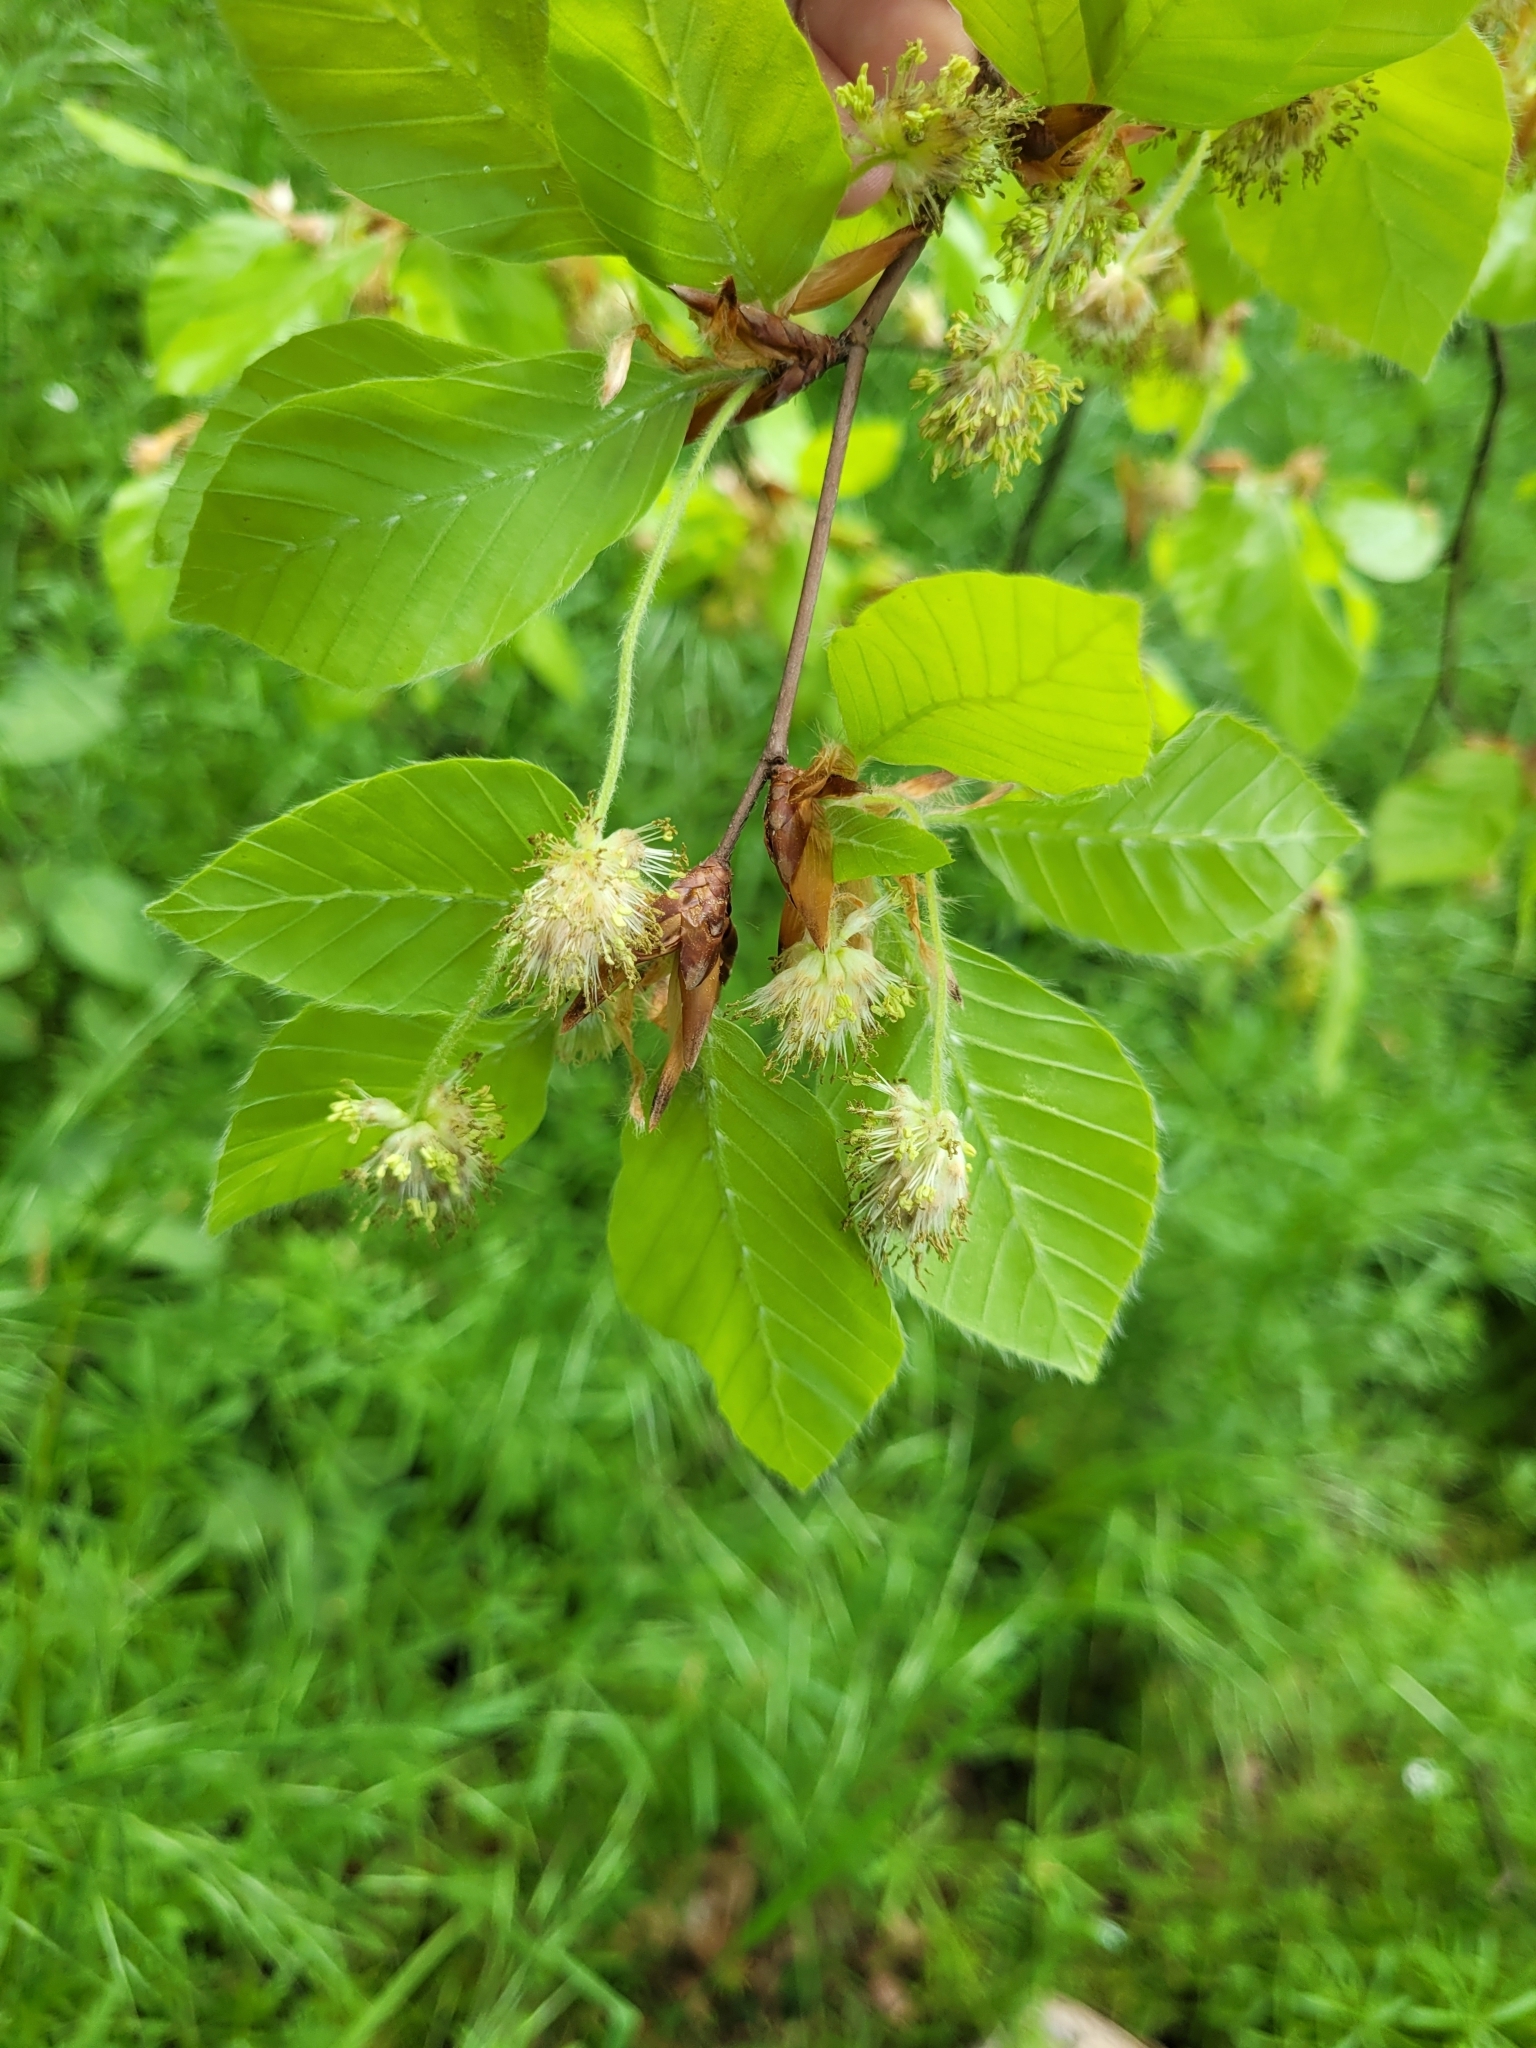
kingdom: Plantae
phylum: Tracheophyta
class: Magnoliopsida
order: Fagales
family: Fagaceae
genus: Fagus
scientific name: Fagus sylvatica
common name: Beech
